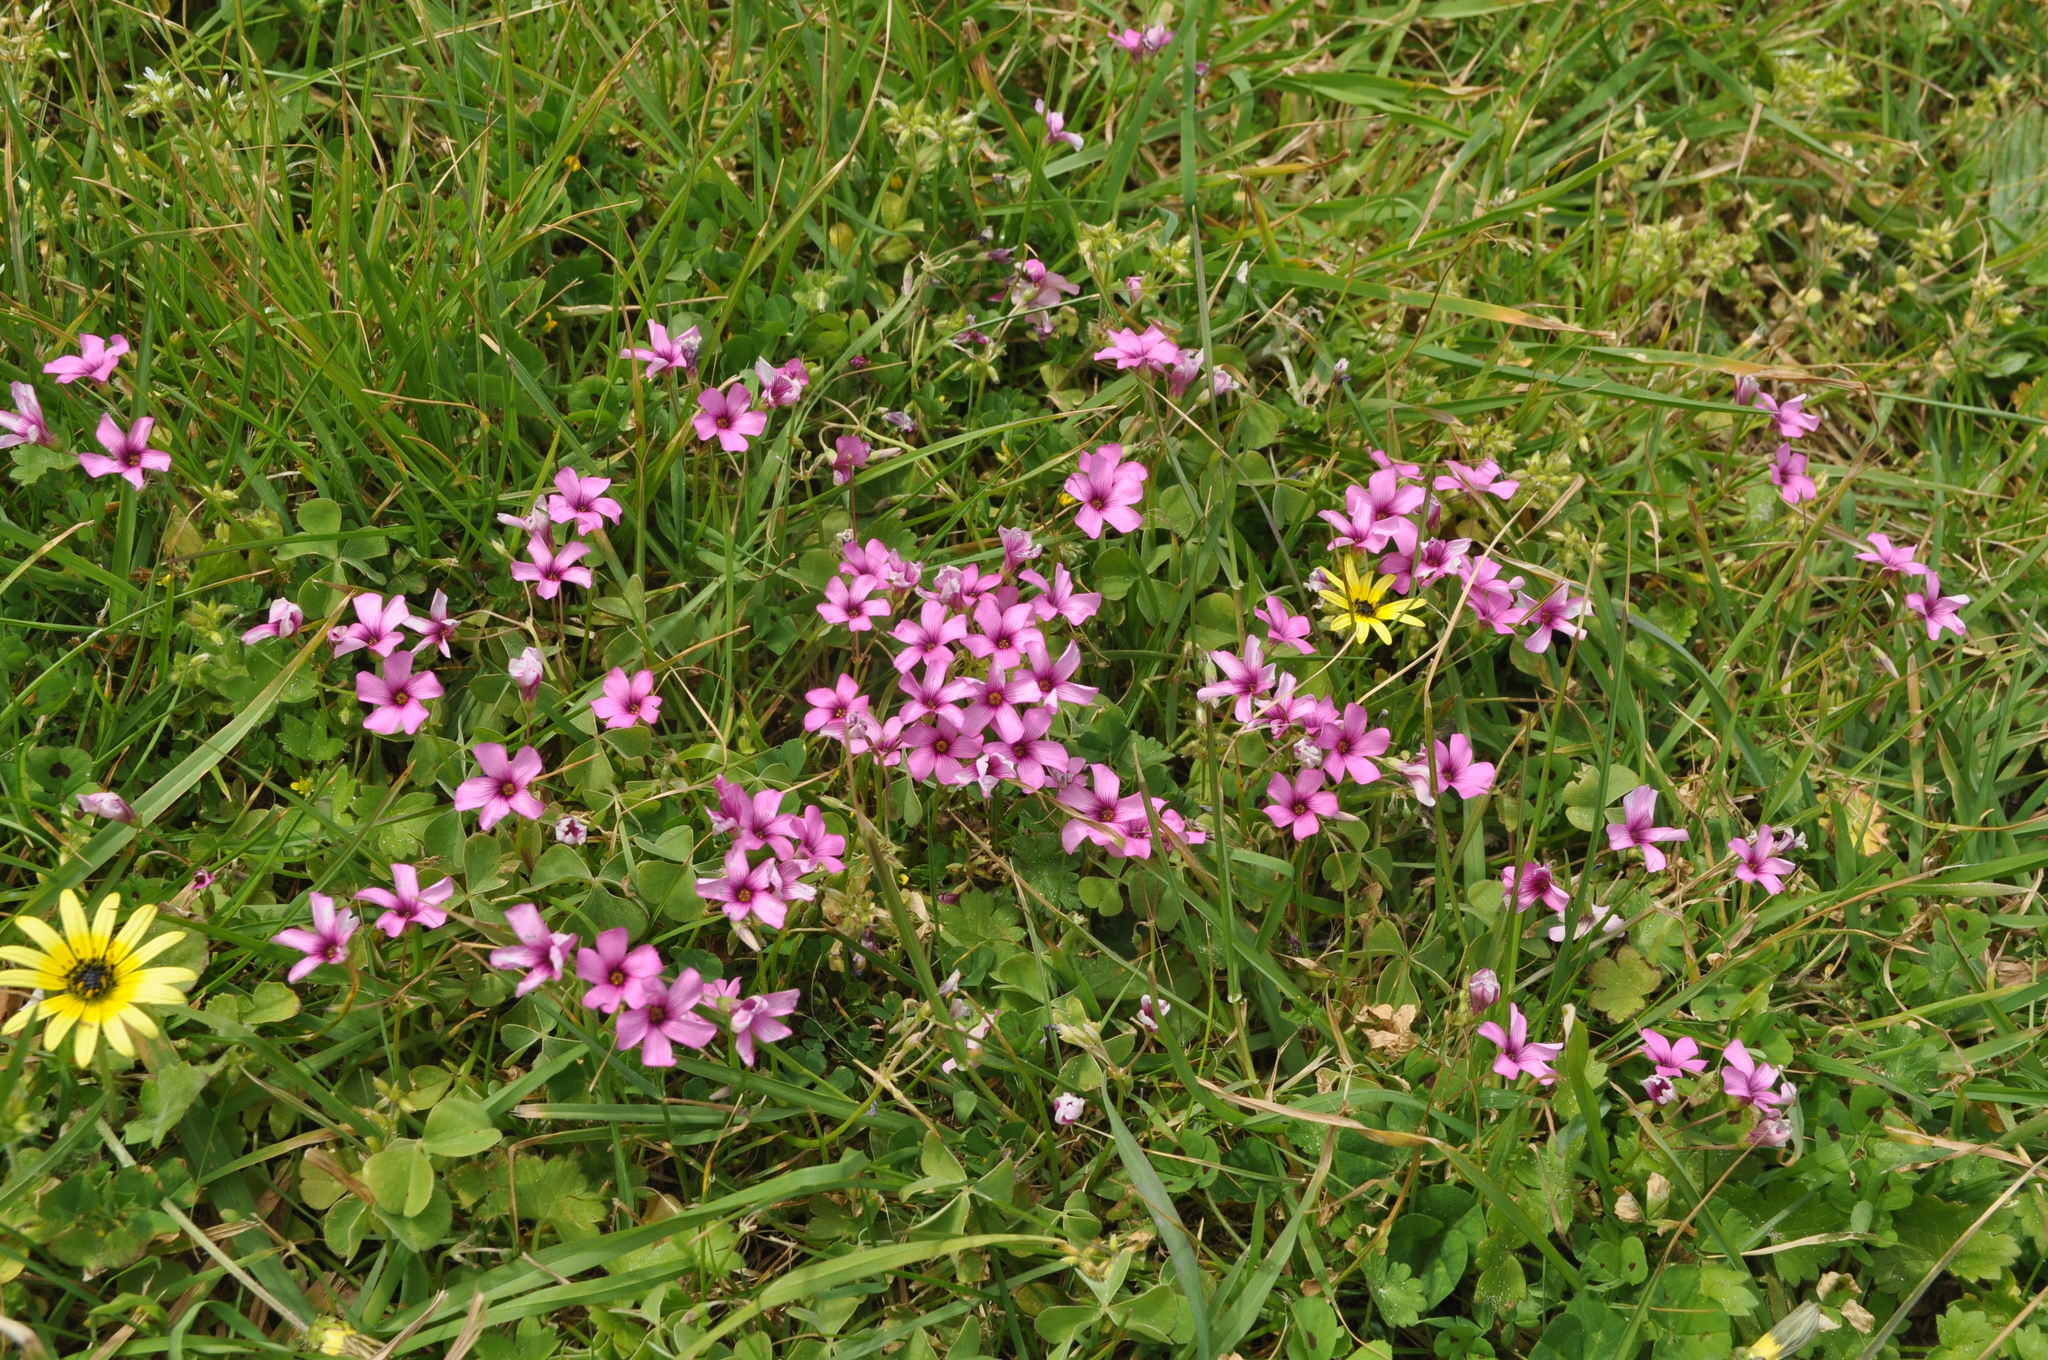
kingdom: Plantae
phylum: Tracheophyta
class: Magnoliopsida
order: Oxalidales
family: Oxalidaceae
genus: Oxalis
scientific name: Oxalis articulata
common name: Pink-sorrel
